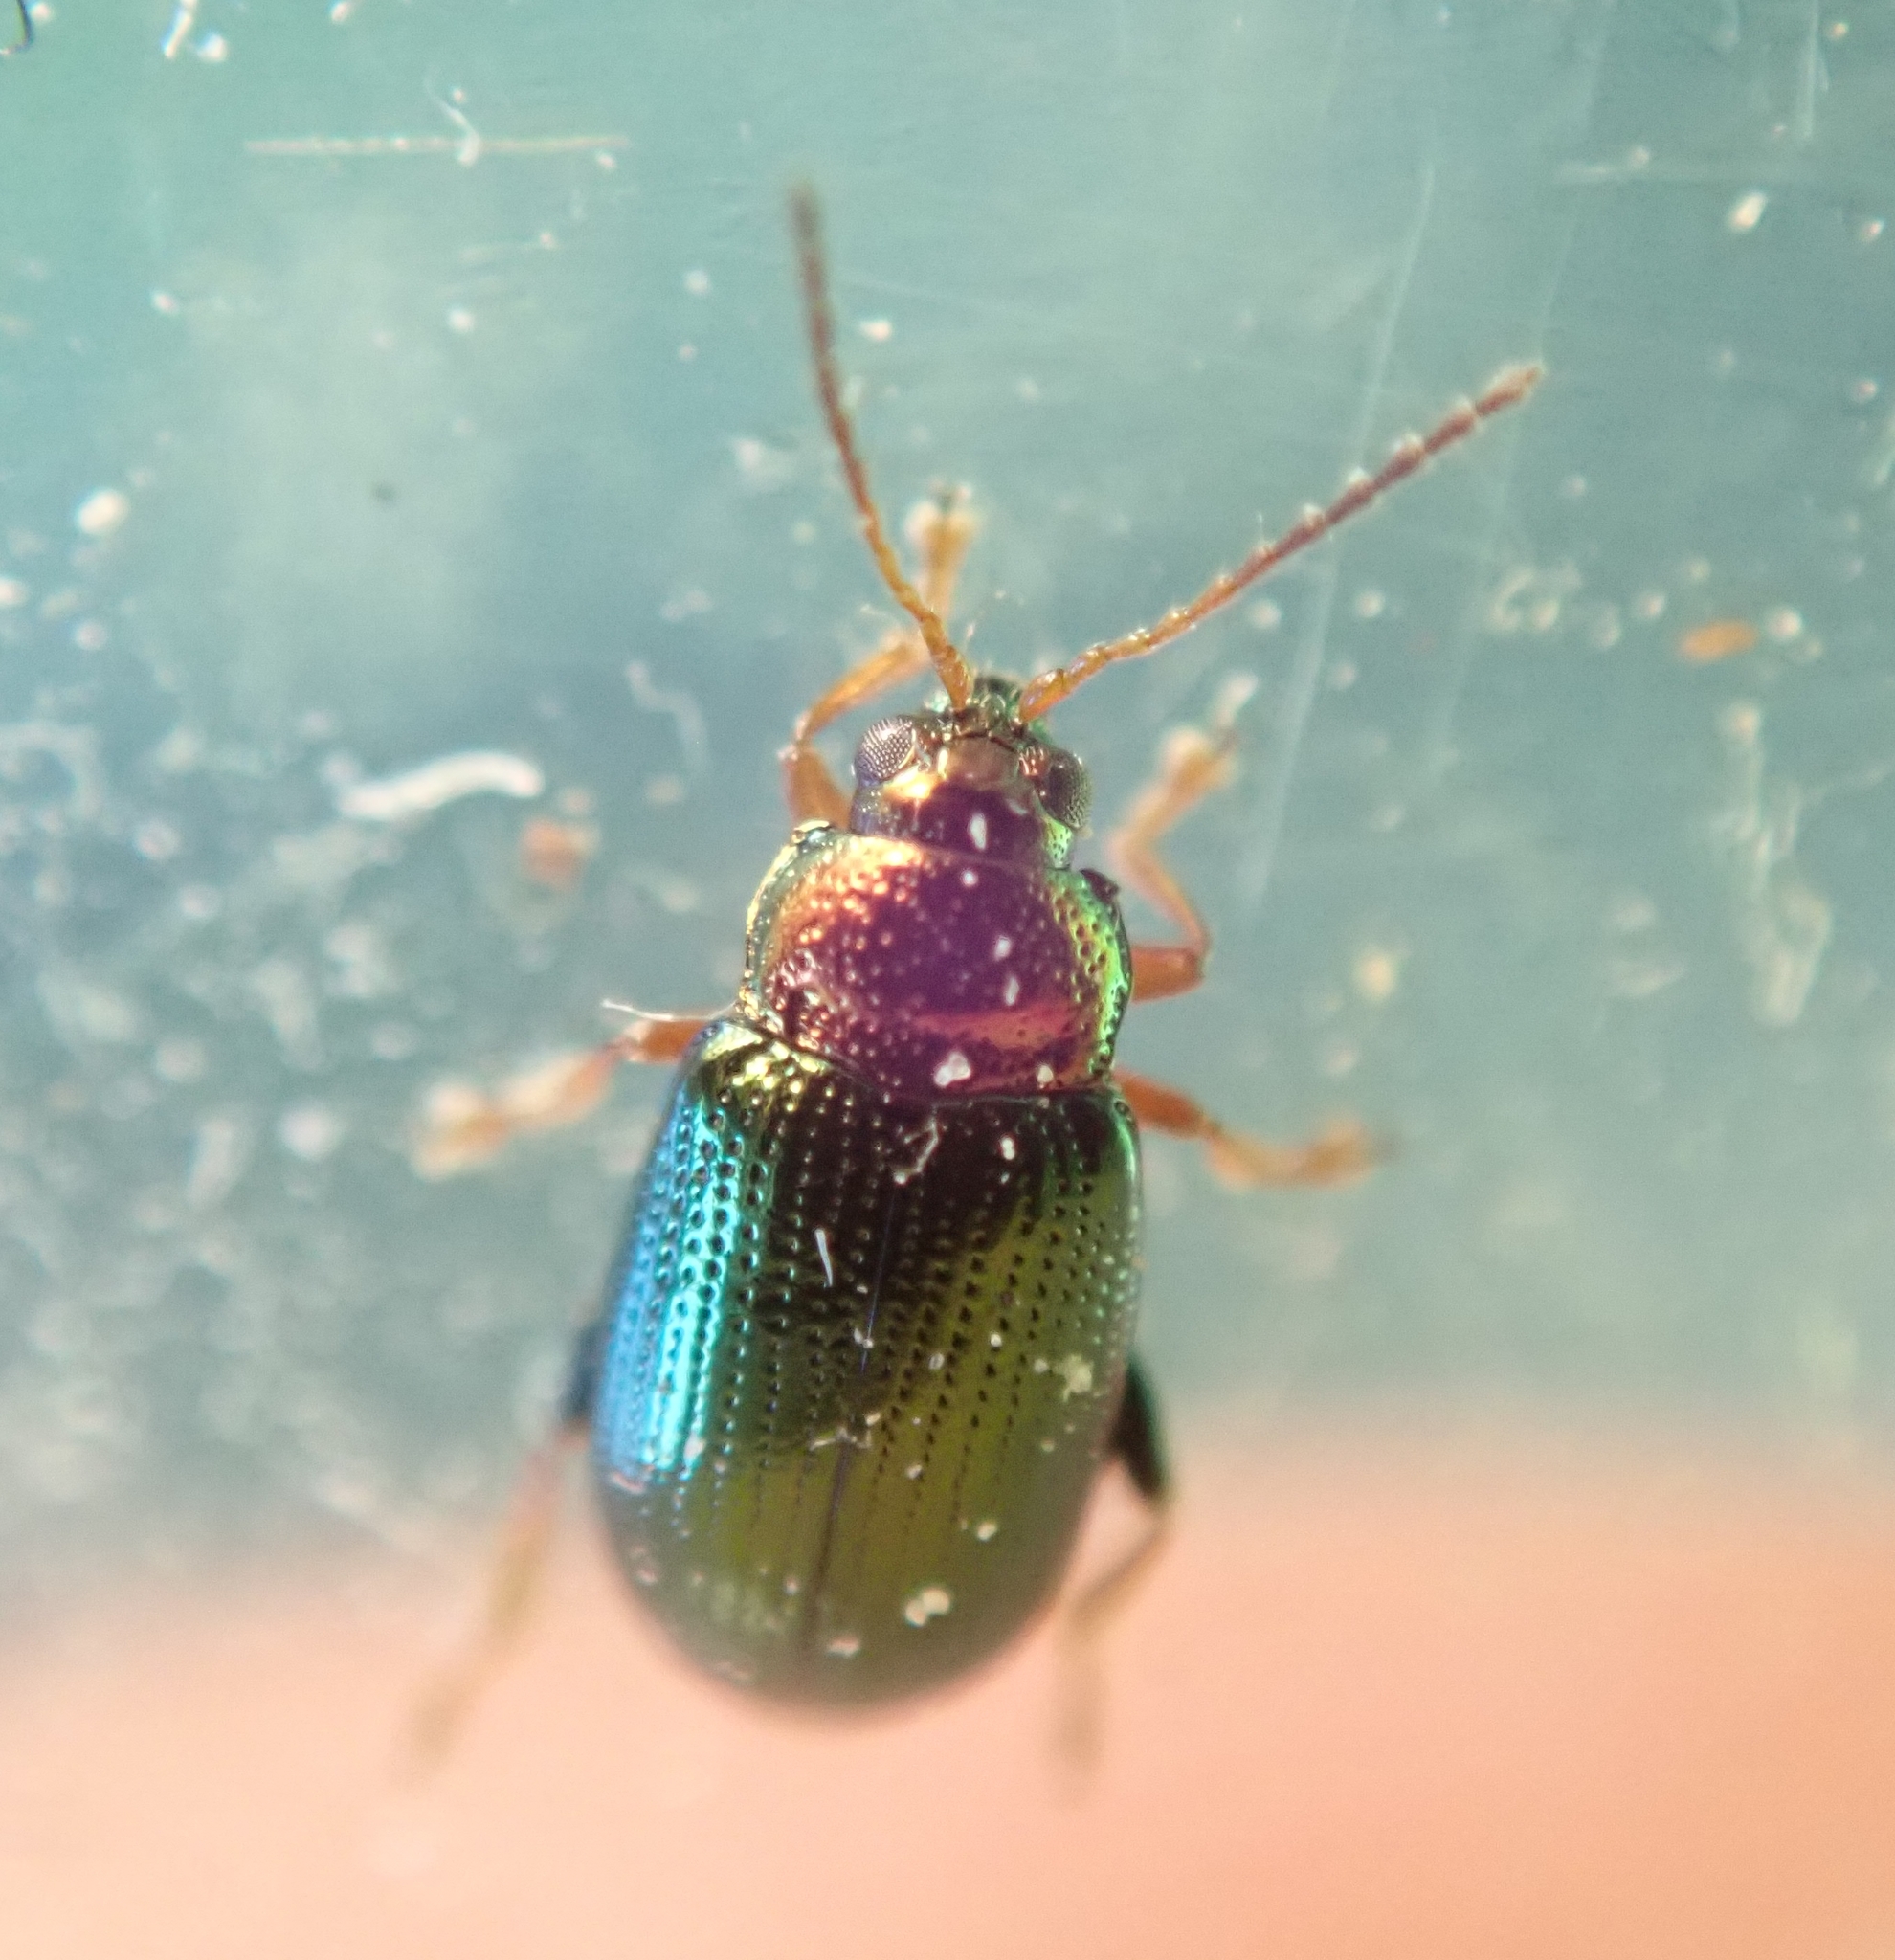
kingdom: Animalia
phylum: Arthropoda
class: Insecta
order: Coleoptera
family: Chrysomelidae
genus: Crepidodera
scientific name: Crepidodera aurata
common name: Willow flea beetle
